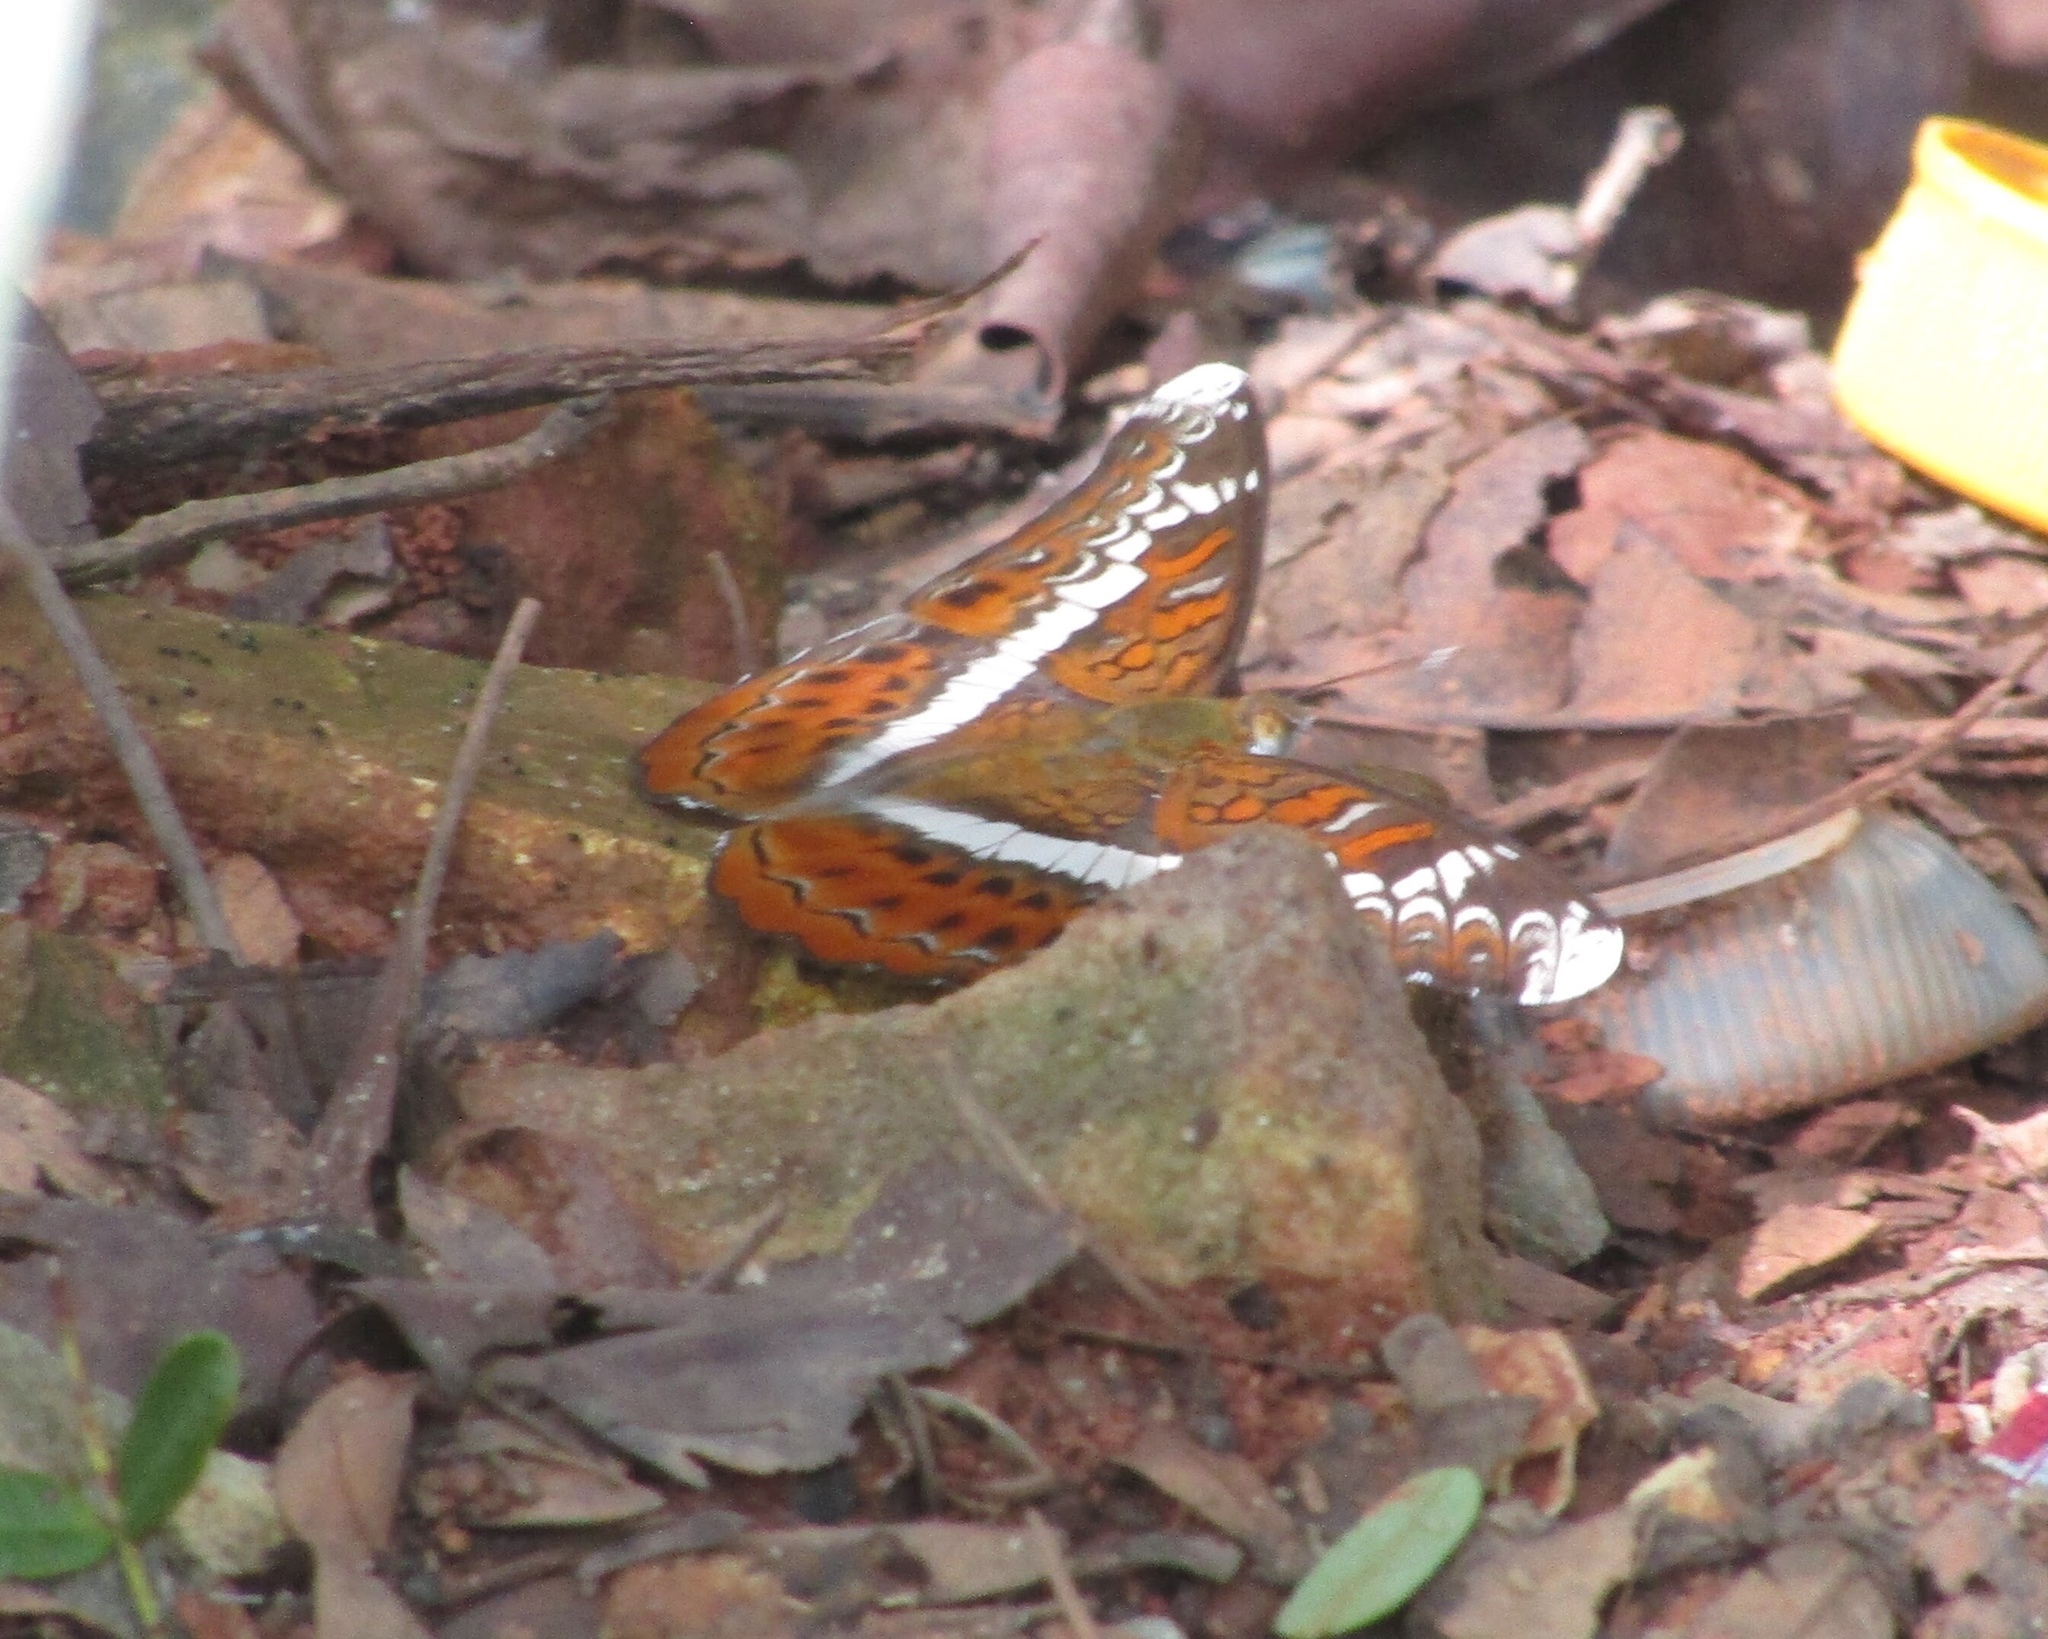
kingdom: Animalia
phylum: Arthropoda
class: Insecta
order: Lepidoptera
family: Nymphalidae
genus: Lebadea
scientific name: Lebadea martha
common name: Knight
